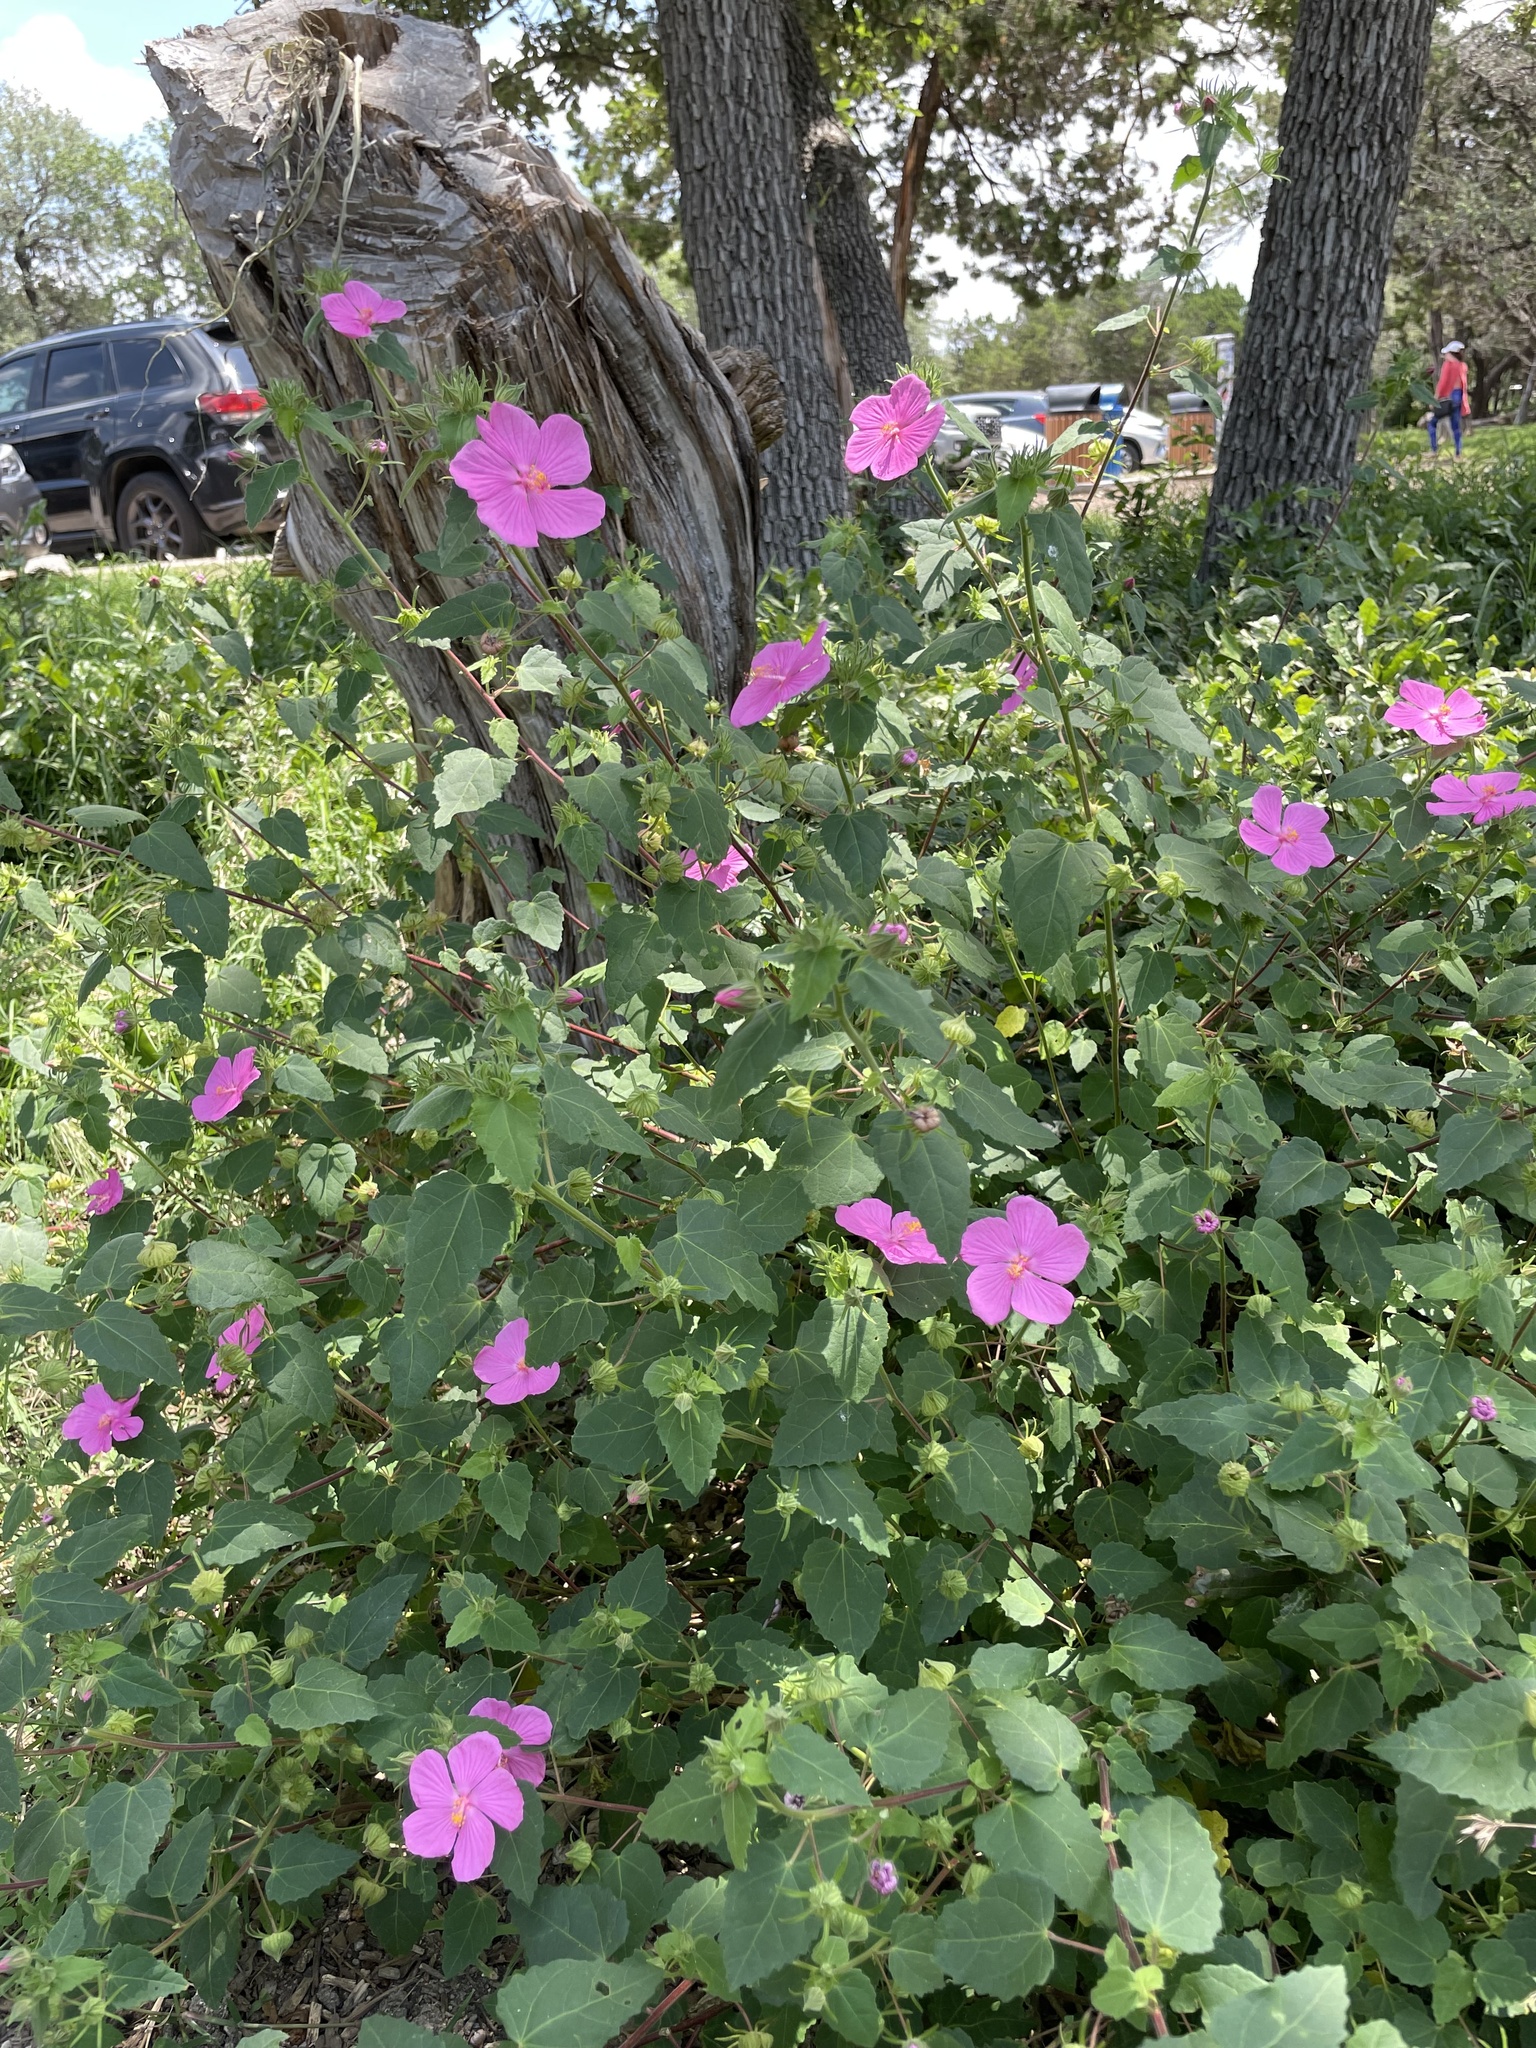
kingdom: Plantae
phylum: Tracheophyta
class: Magnoliopsida
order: Malvales
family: Malvaceae
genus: Pavonia
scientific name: Pavonia lasiopetala
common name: Texas swamp-mallow
